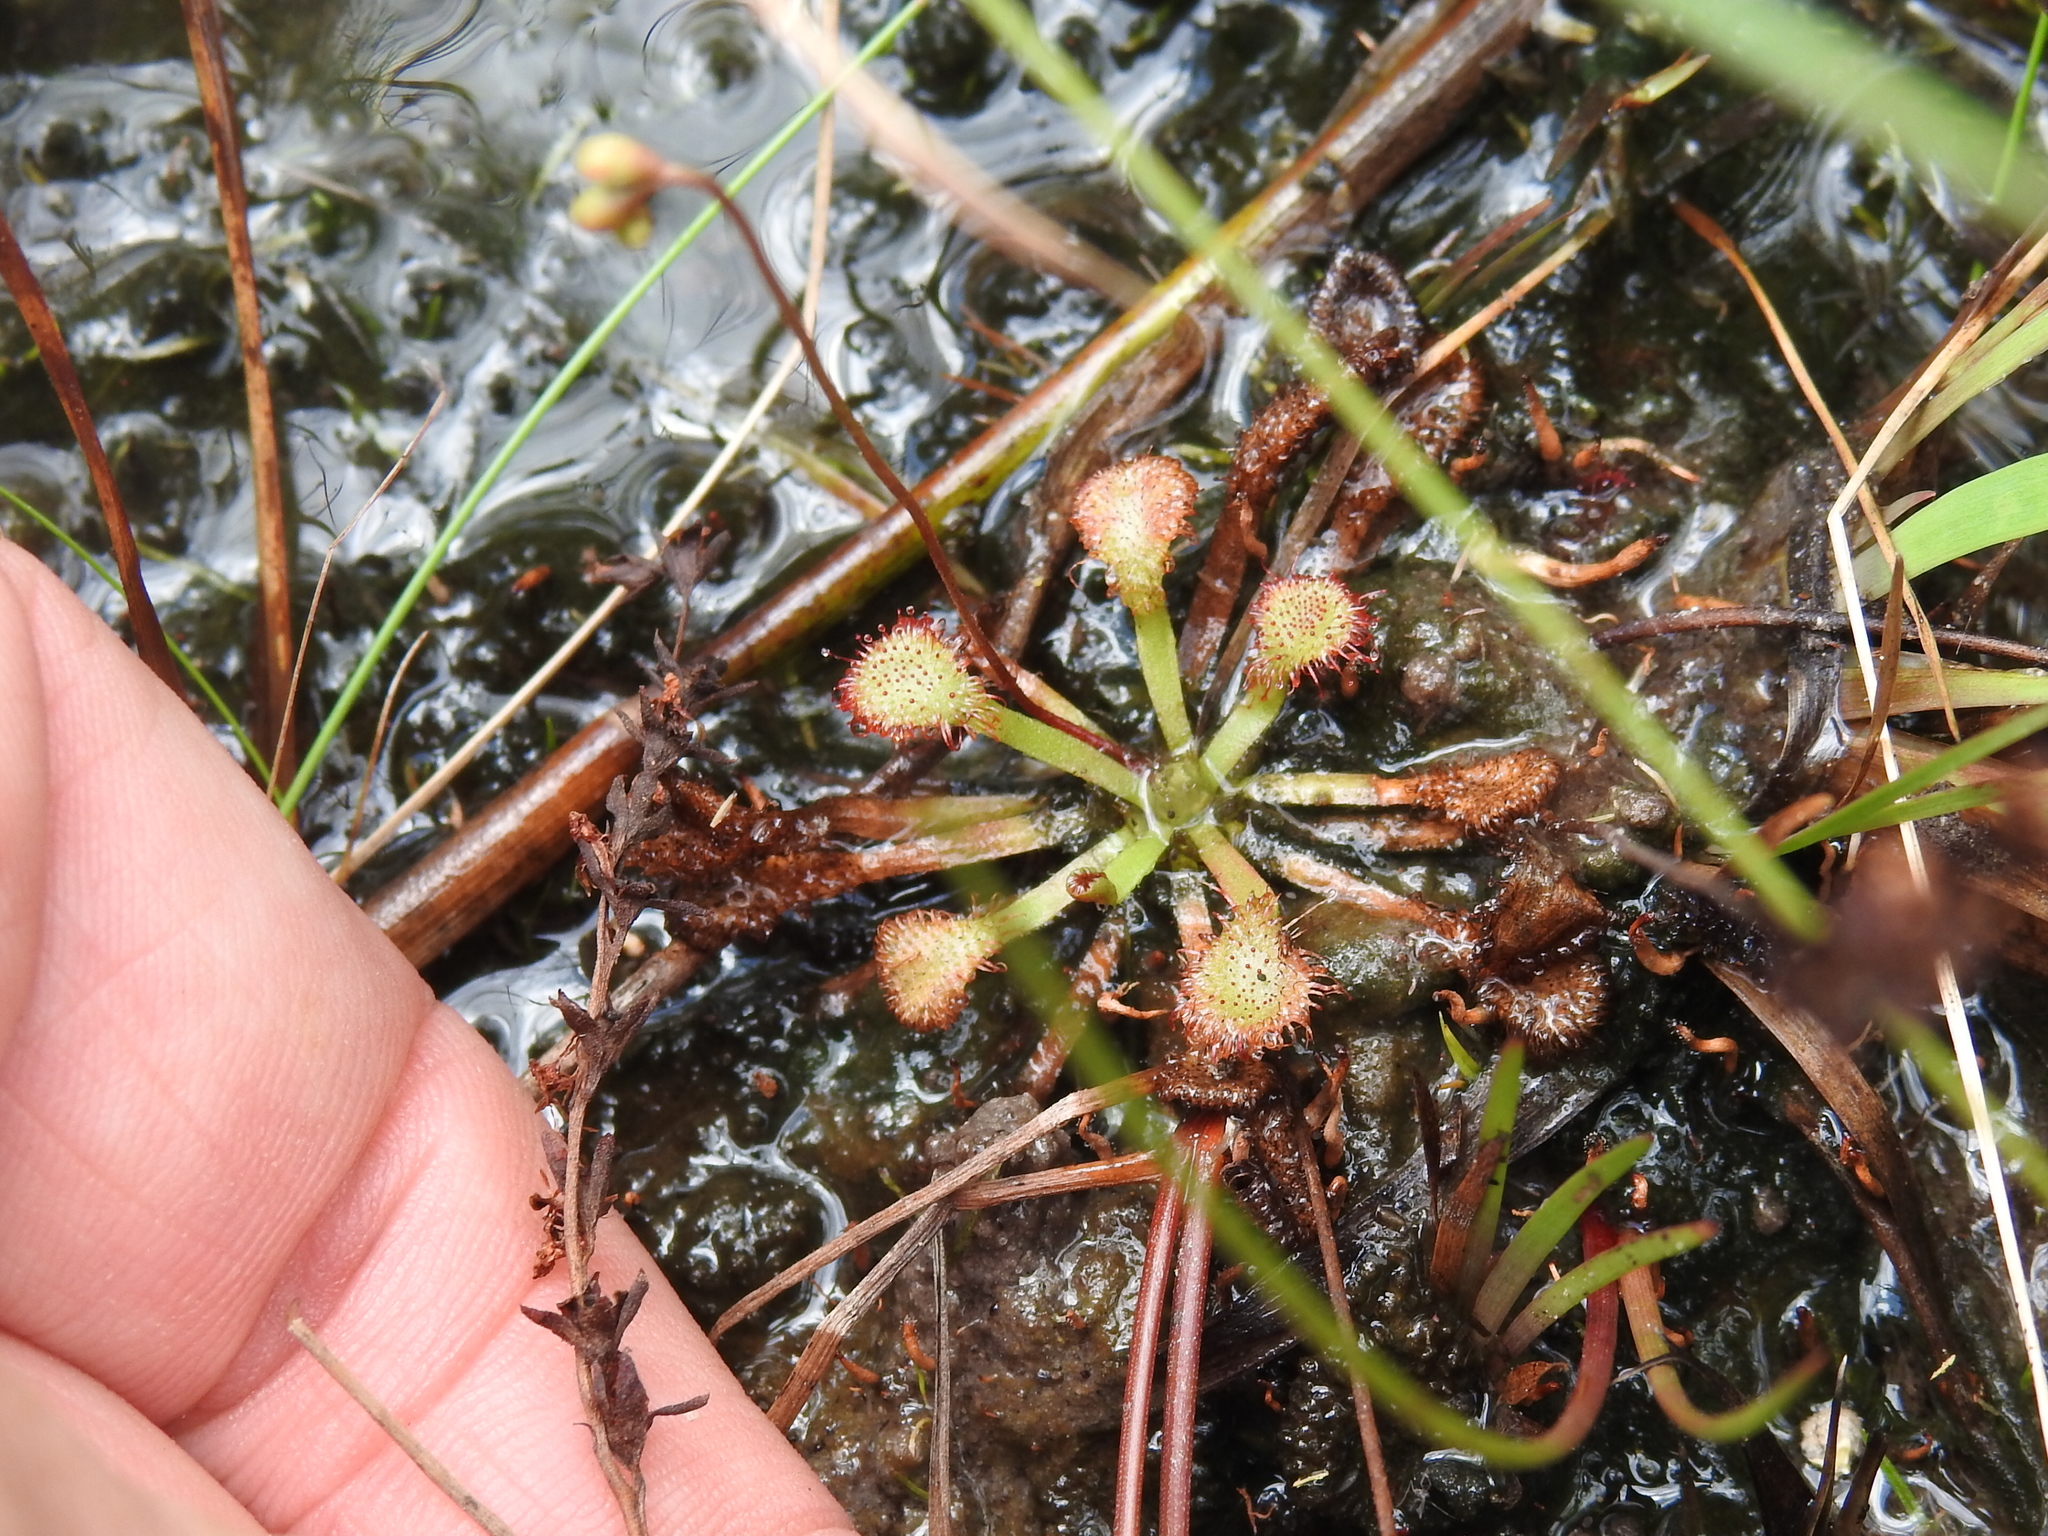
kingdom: Plantae
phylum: Tracheophyta
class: Magnoliopsida
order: Caryophyllales
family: Droseraceae
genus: Drosera
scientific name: Drosera capillaris
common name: Pink sundew
